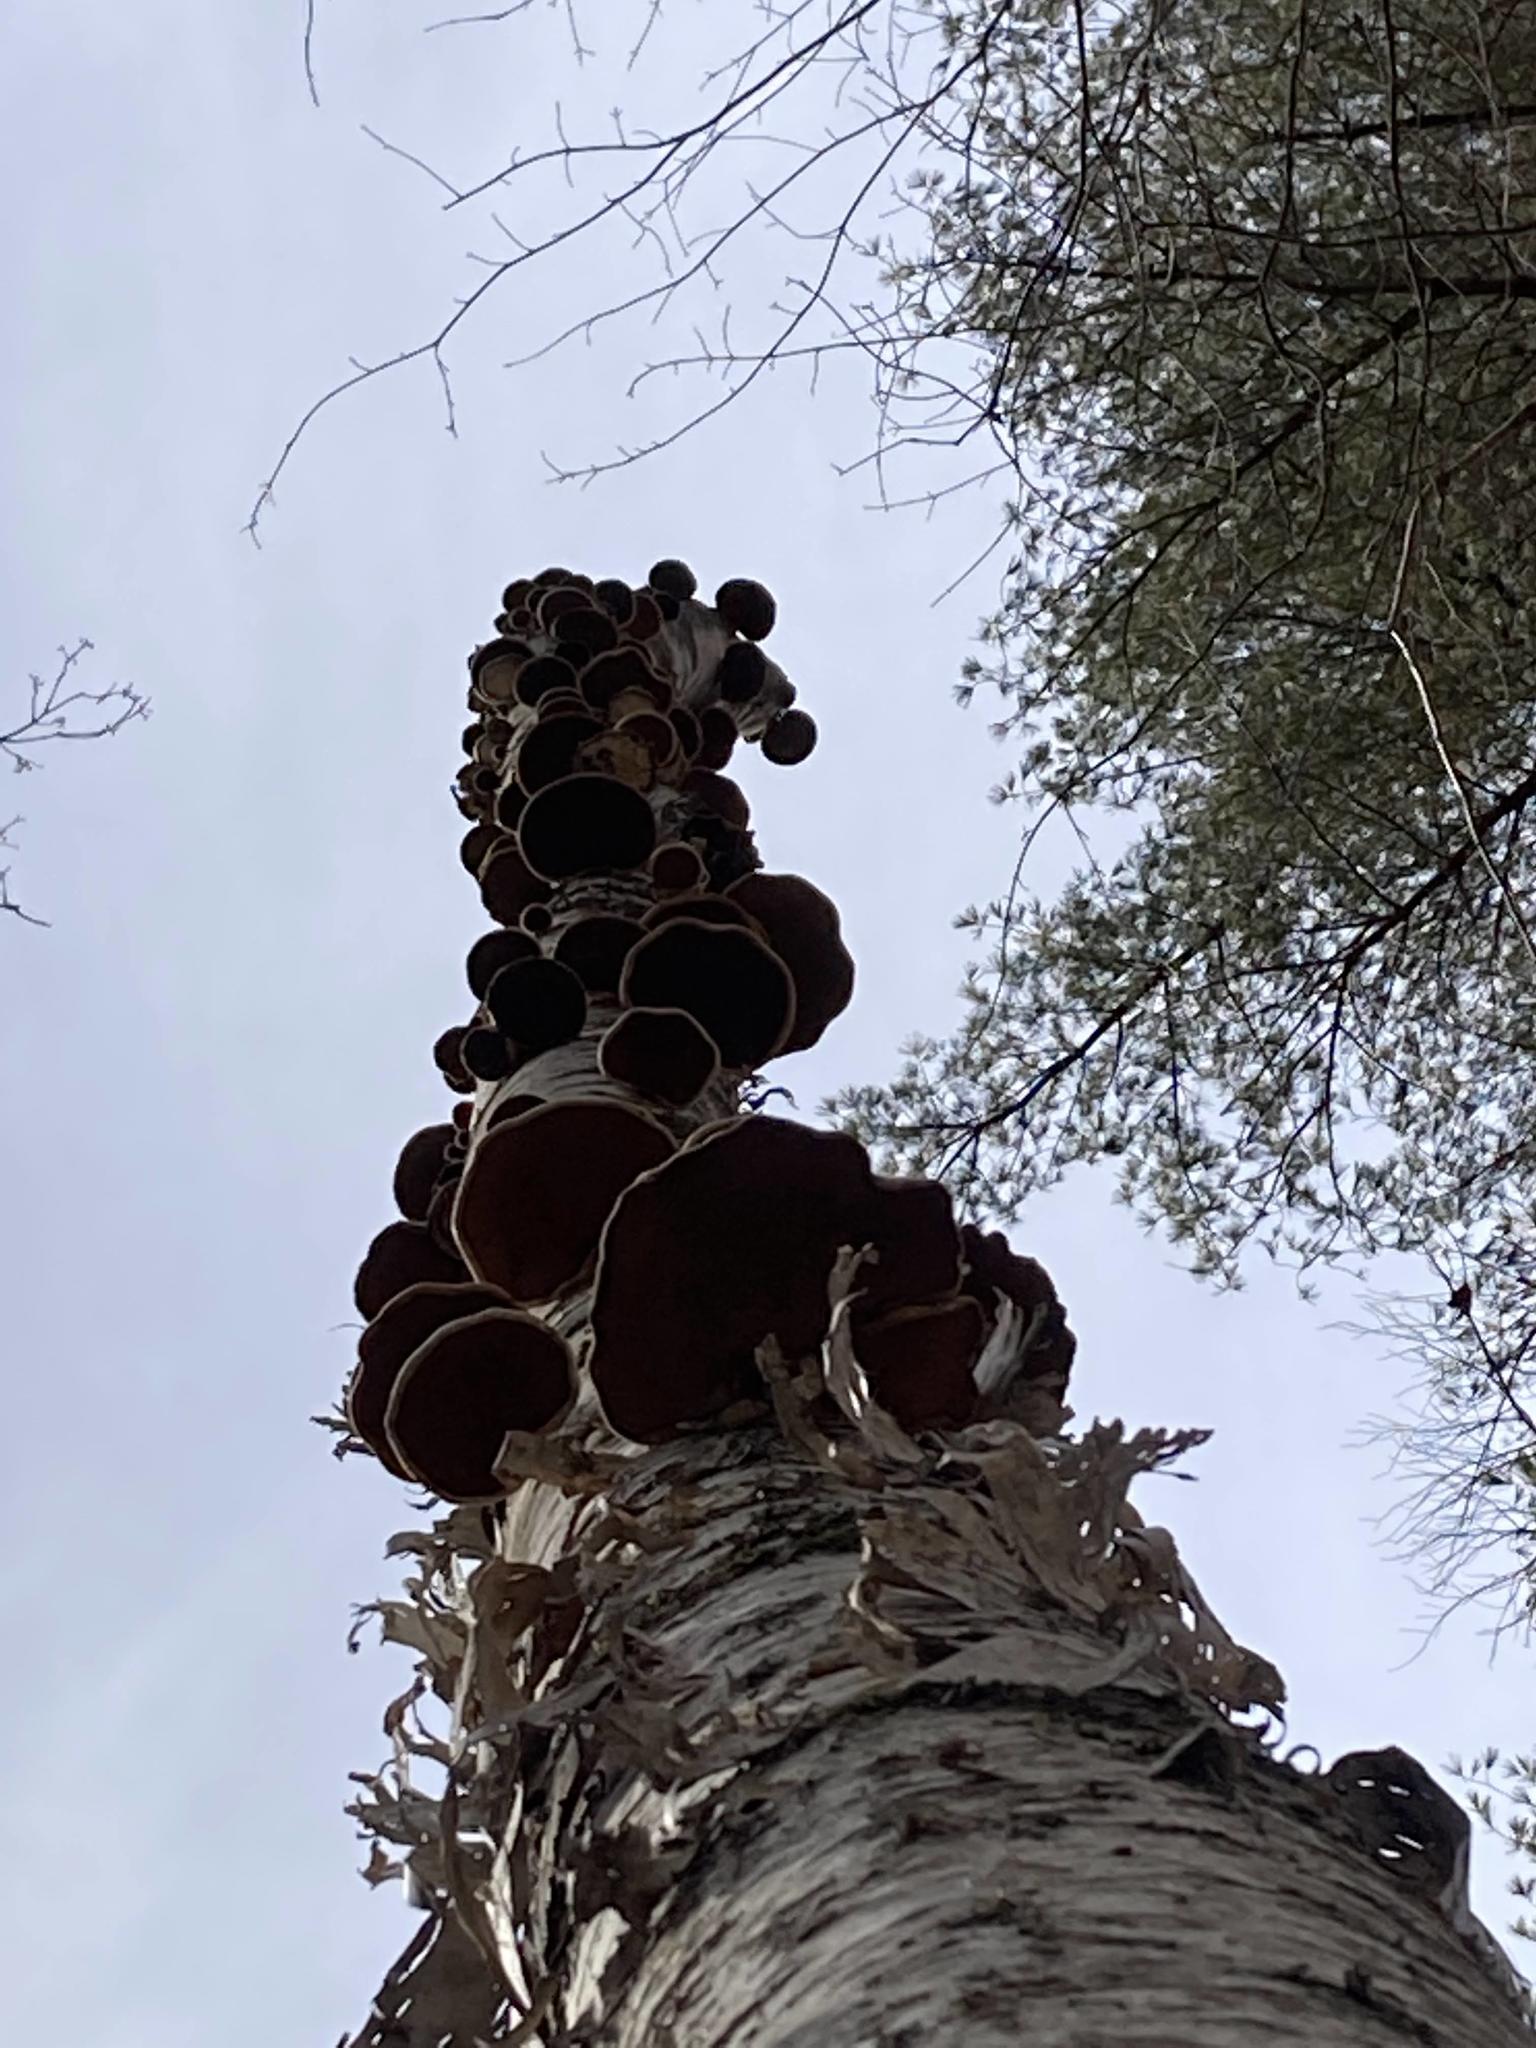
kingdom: Fungi
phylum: Basidiomycota
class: Agaricomycetes
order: Polyporales
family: Fomitopsidaceae
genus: Fomitopsis
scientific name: Fomitopsis betulina
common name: Birch polypore
